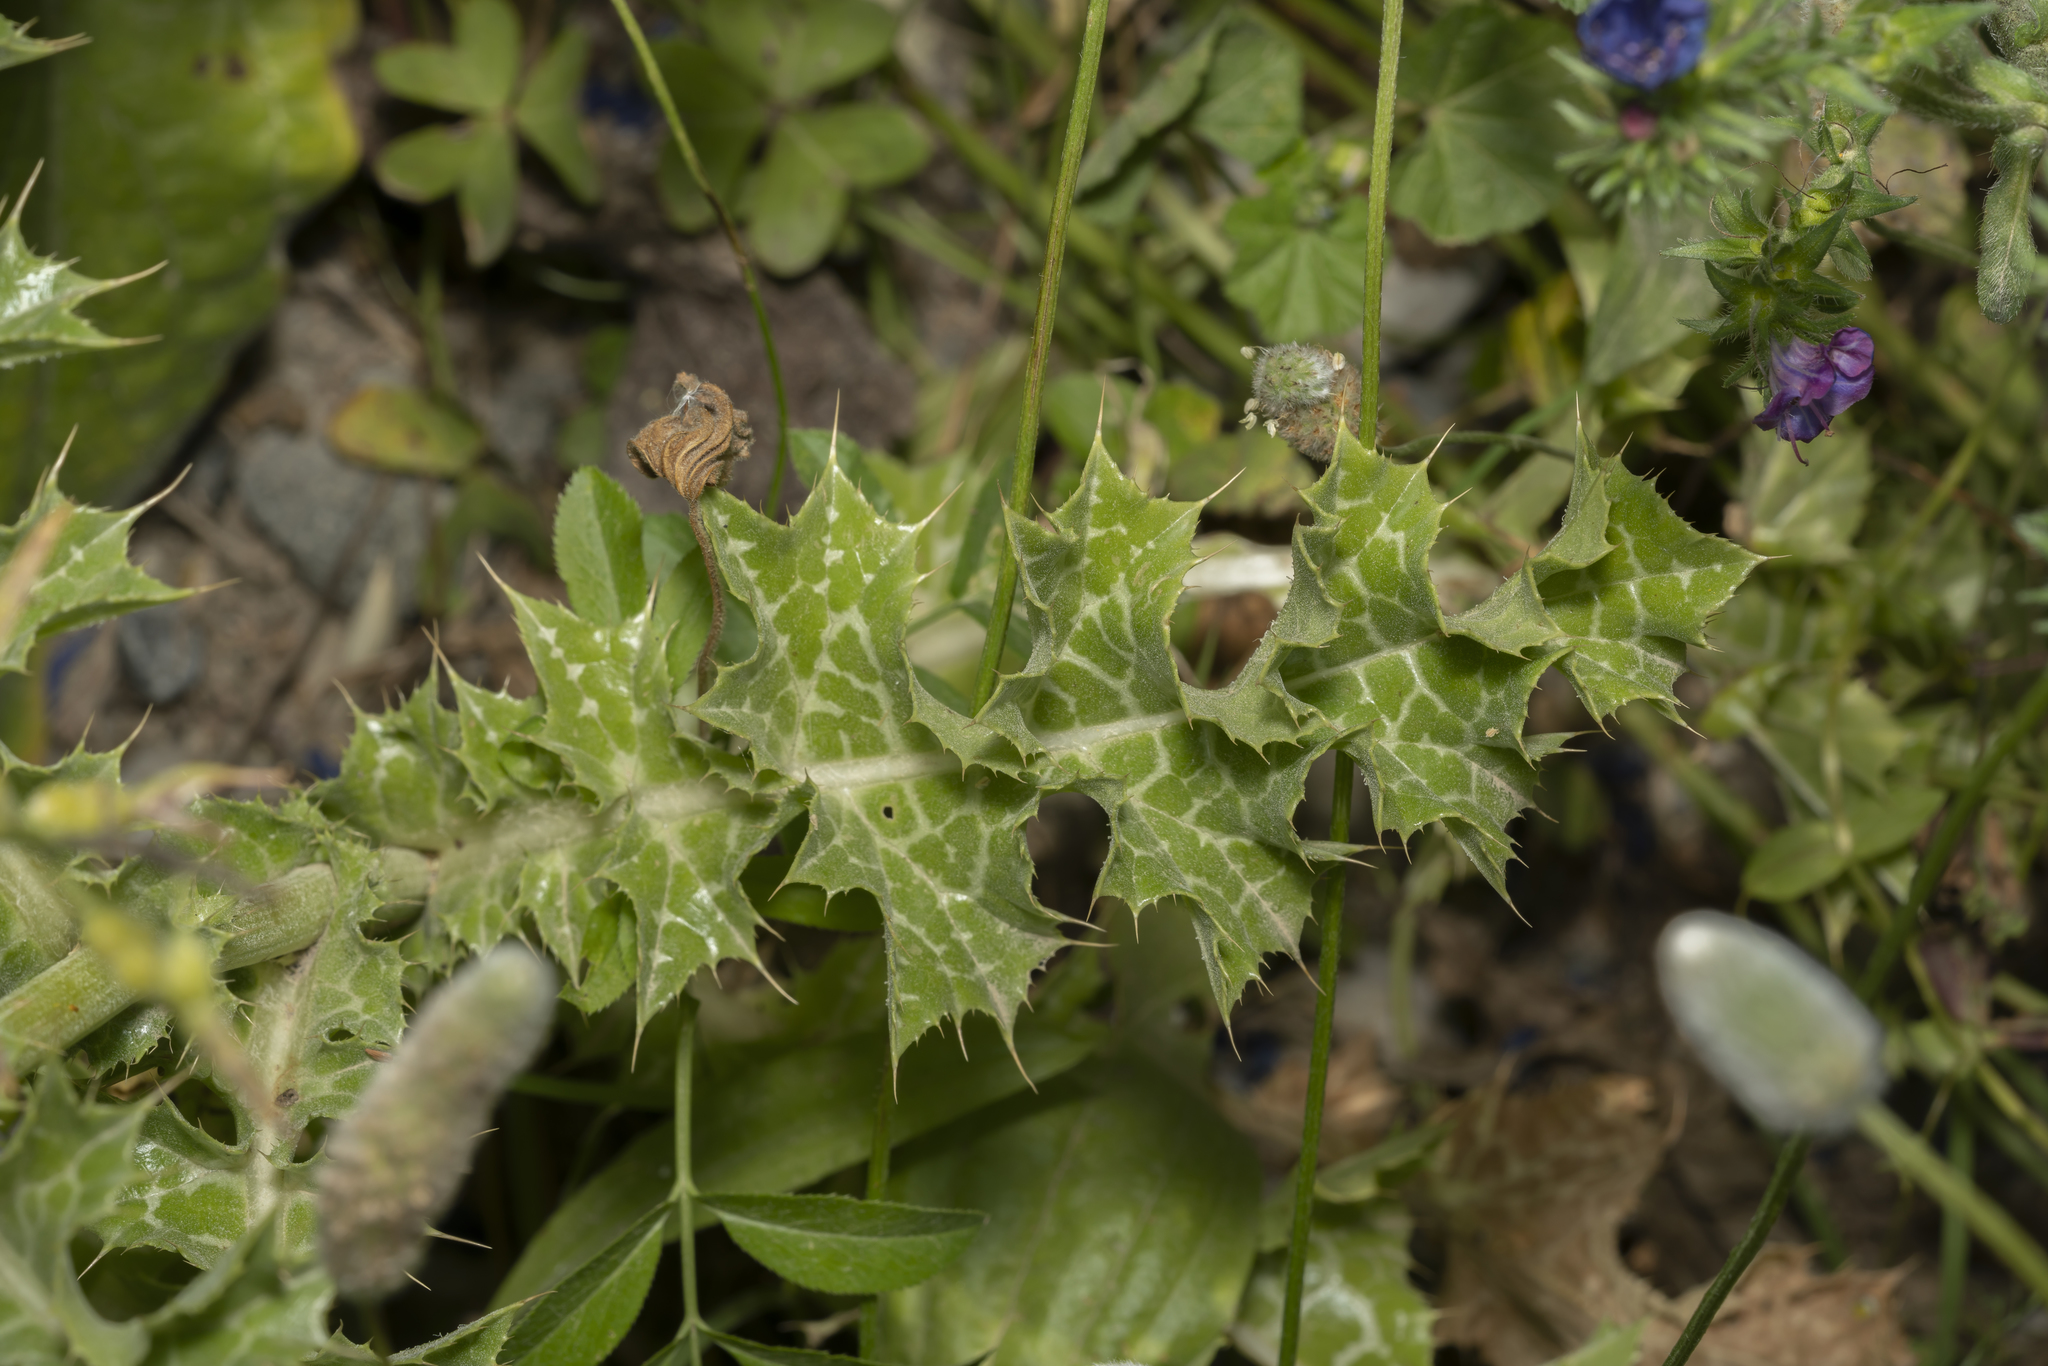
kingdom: Plantae
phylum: Tracheophyta
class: Magnoliopsida
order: Asterales
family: Asteraceae
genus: Silybum
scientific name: Silybum marianum
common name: Milk thistle
